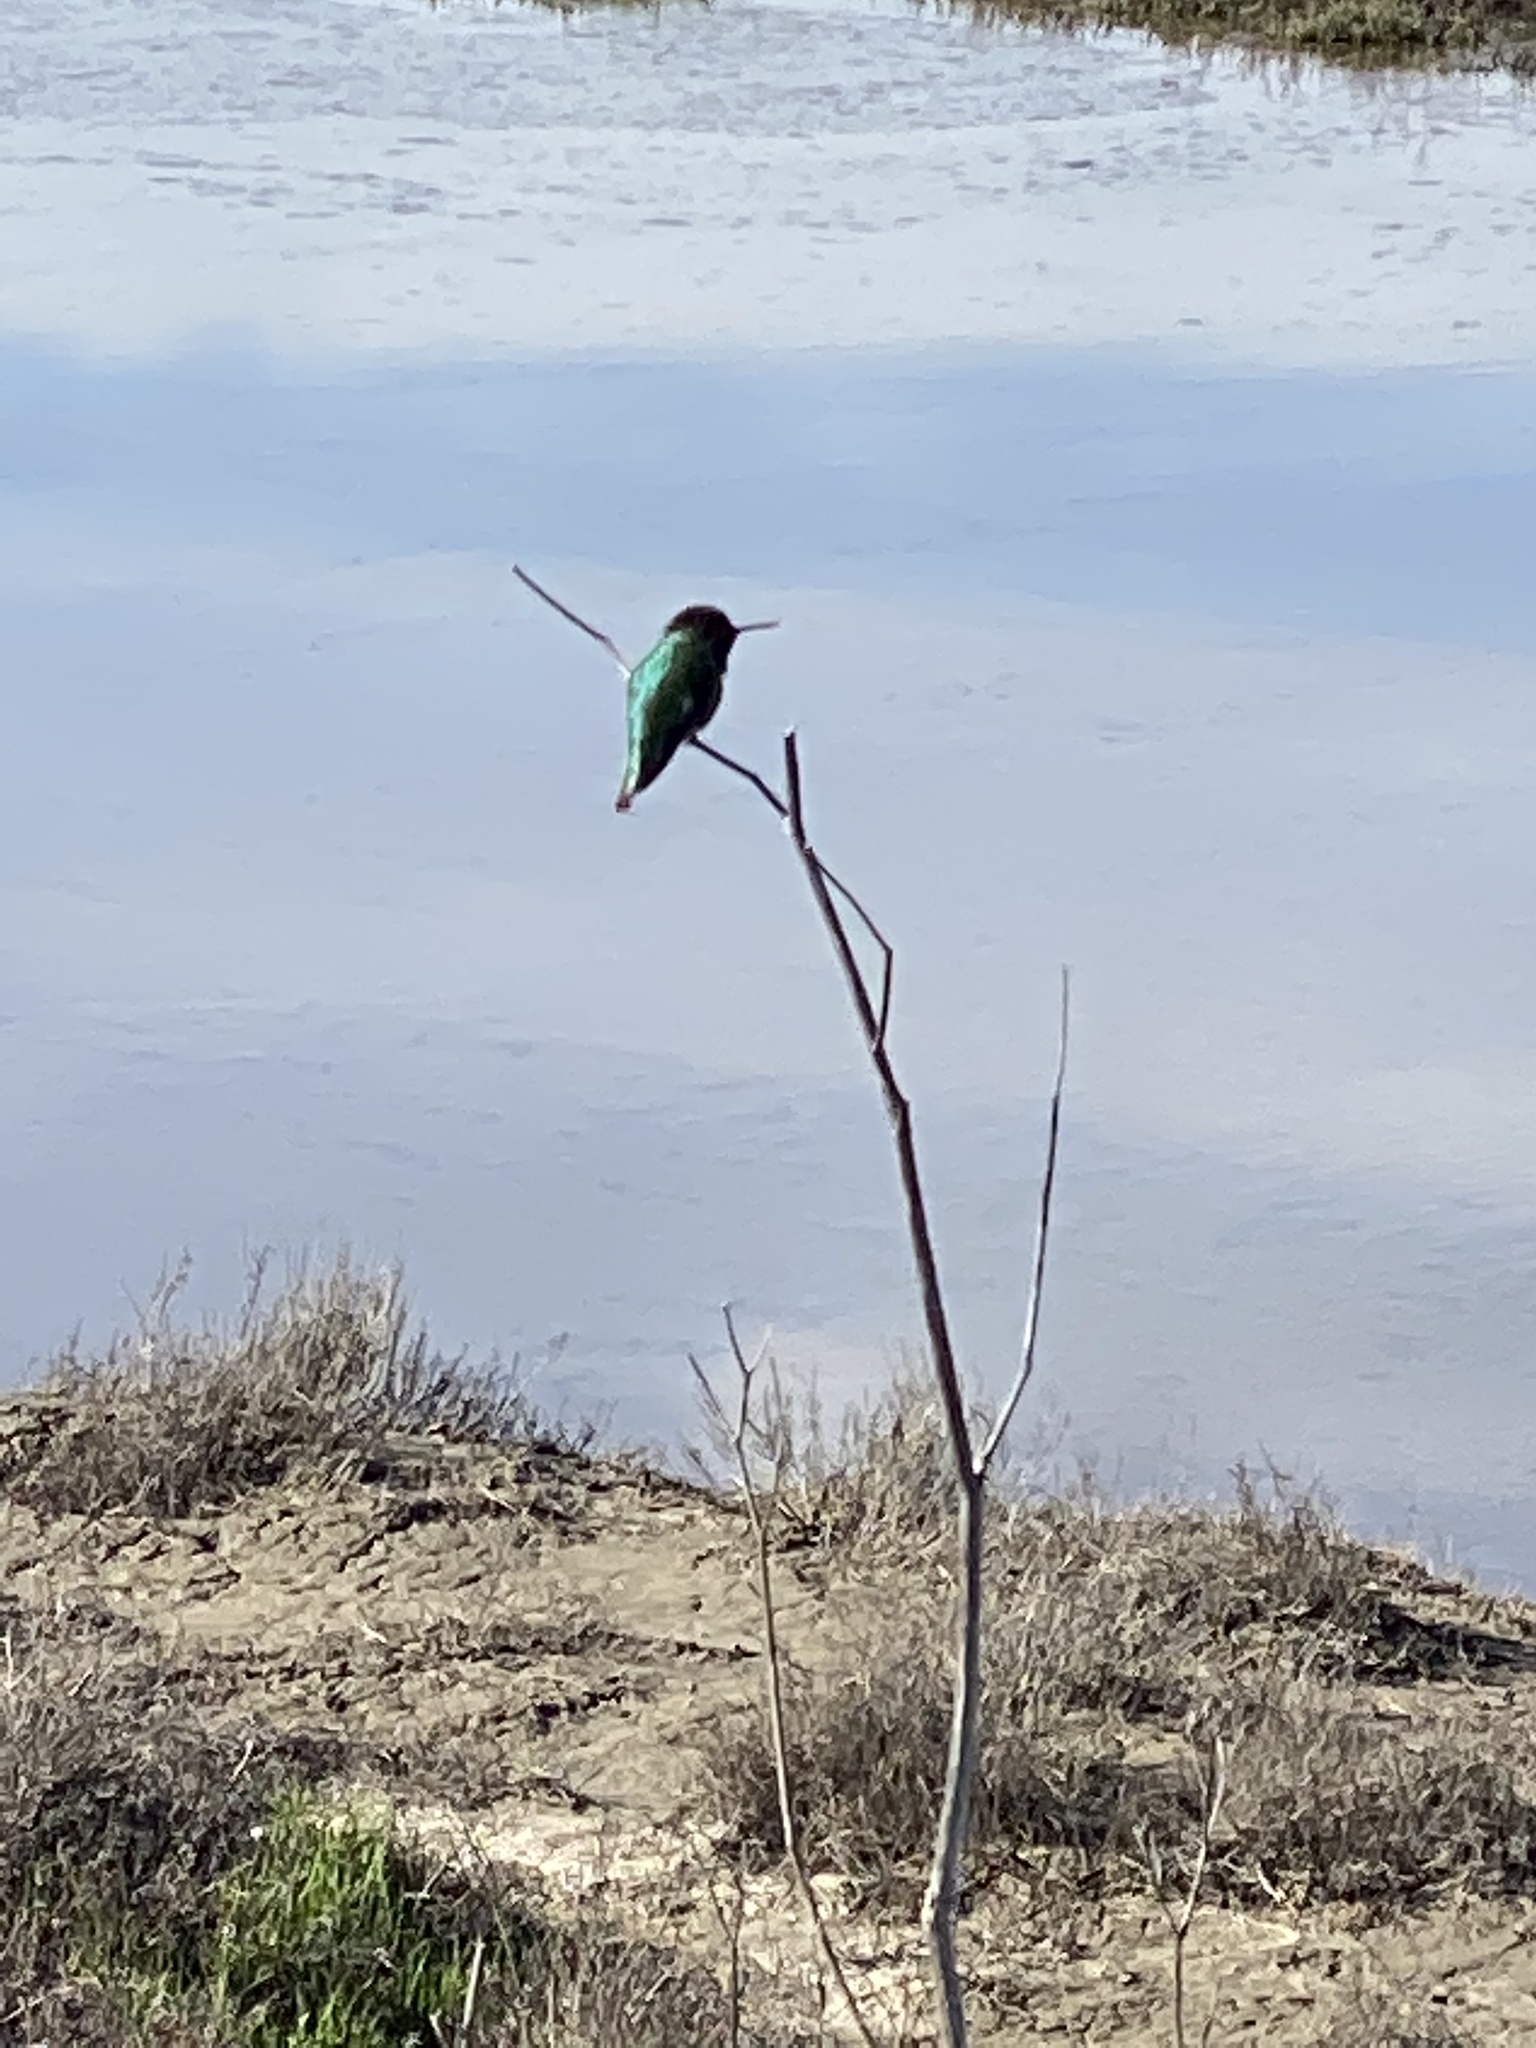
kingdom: Animalia
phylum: Chordata
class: Aves
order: Apodiformes
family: Trochilidae
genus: Calypte
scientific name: Calypte anna
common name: Anna's hummingbird
